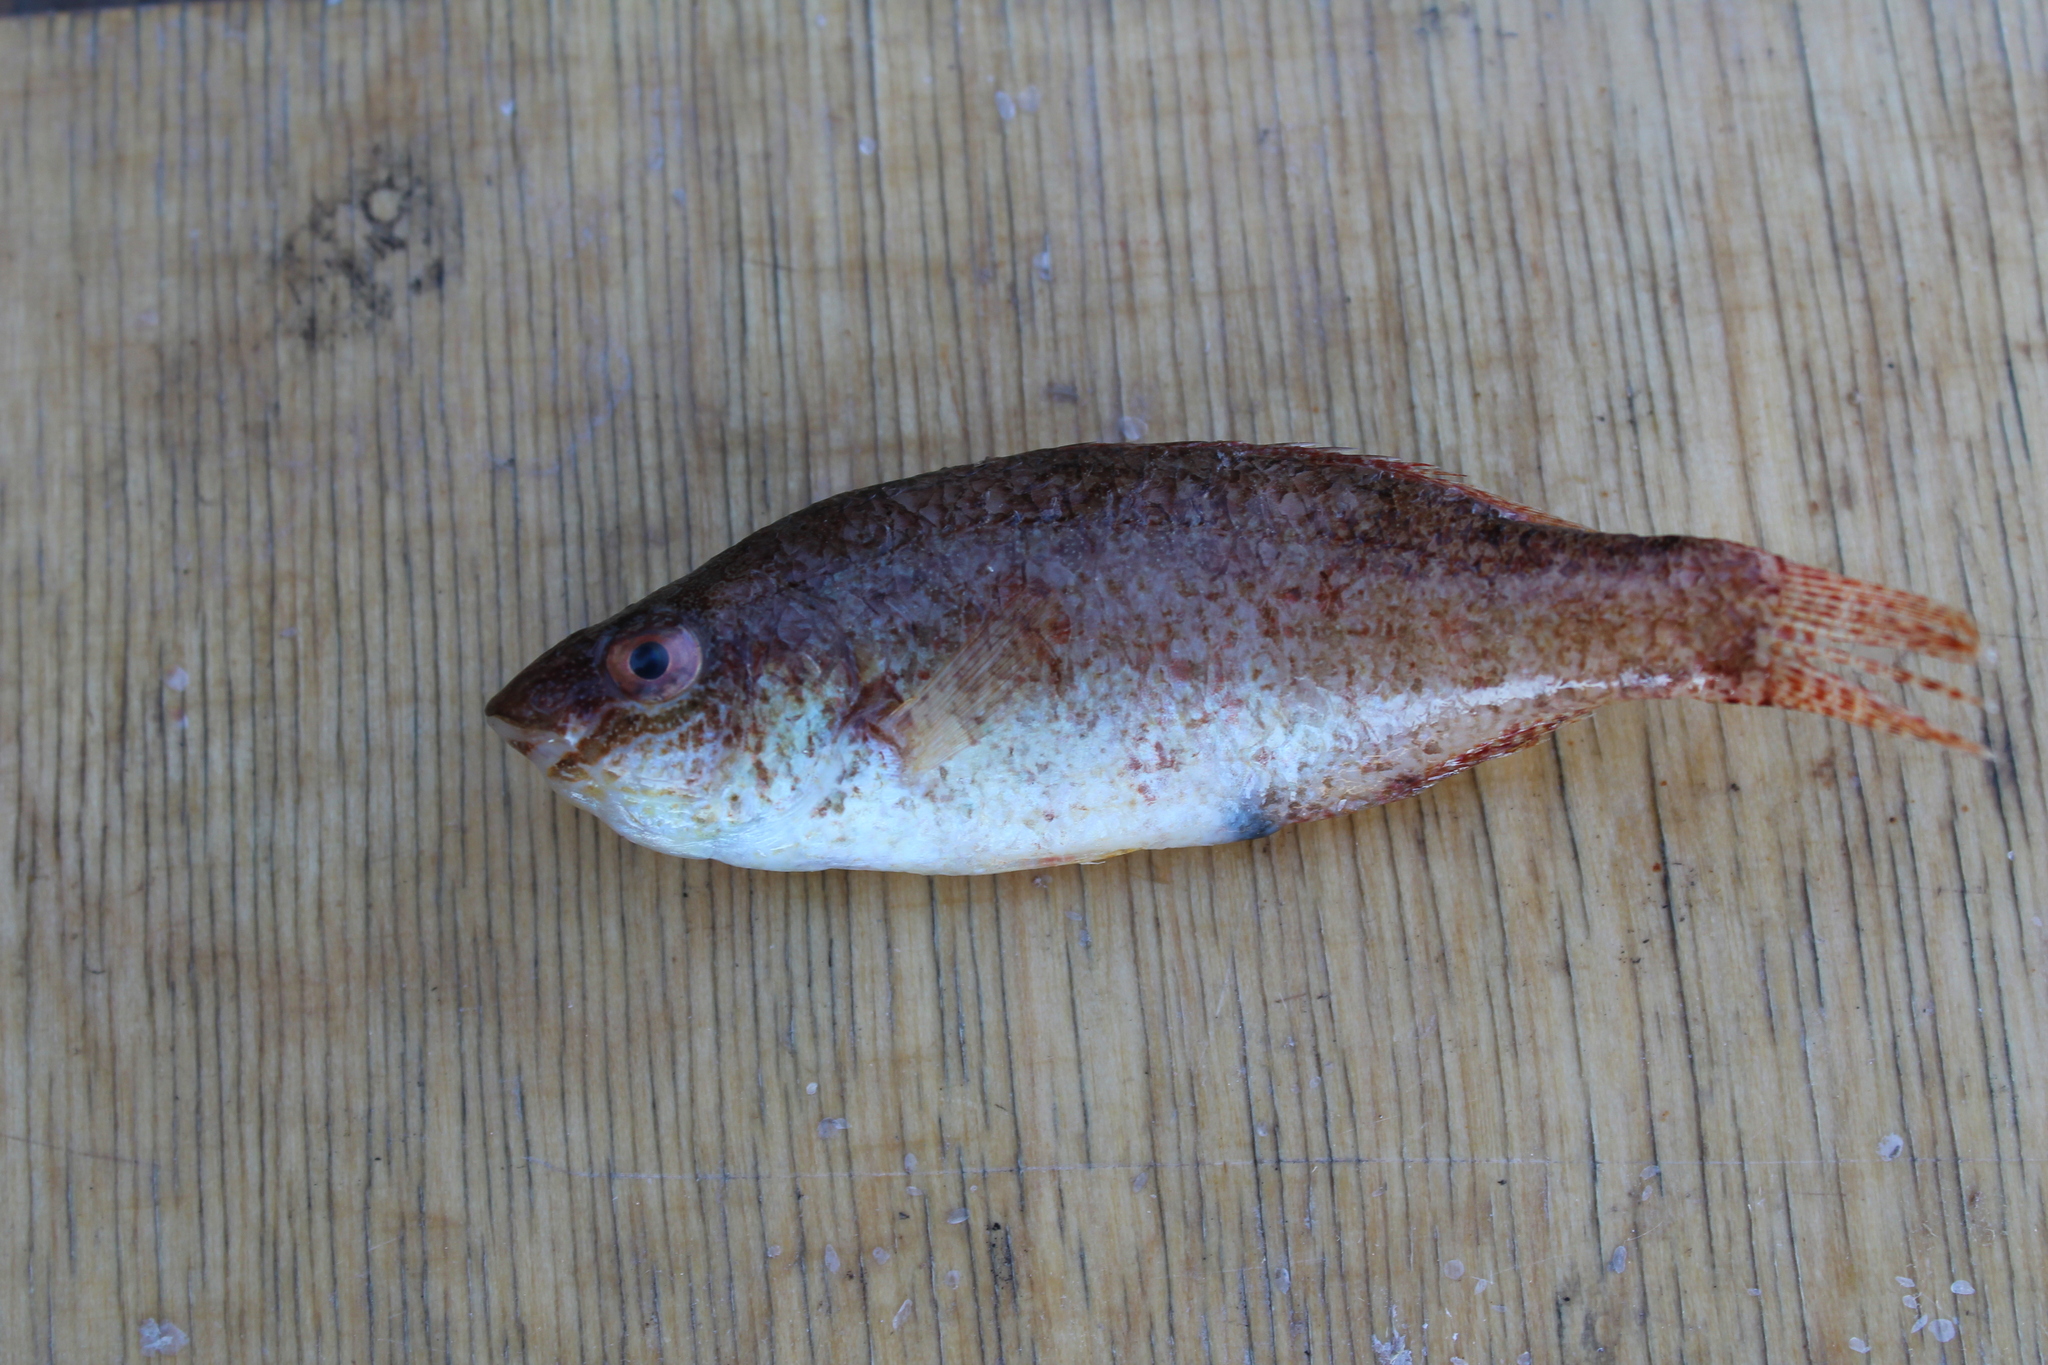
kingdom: Animalia
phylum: Chordata
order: Perciformes
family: Labridae
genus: Symphodus
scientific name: Symphodus cinereus
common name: Grey wrasse
